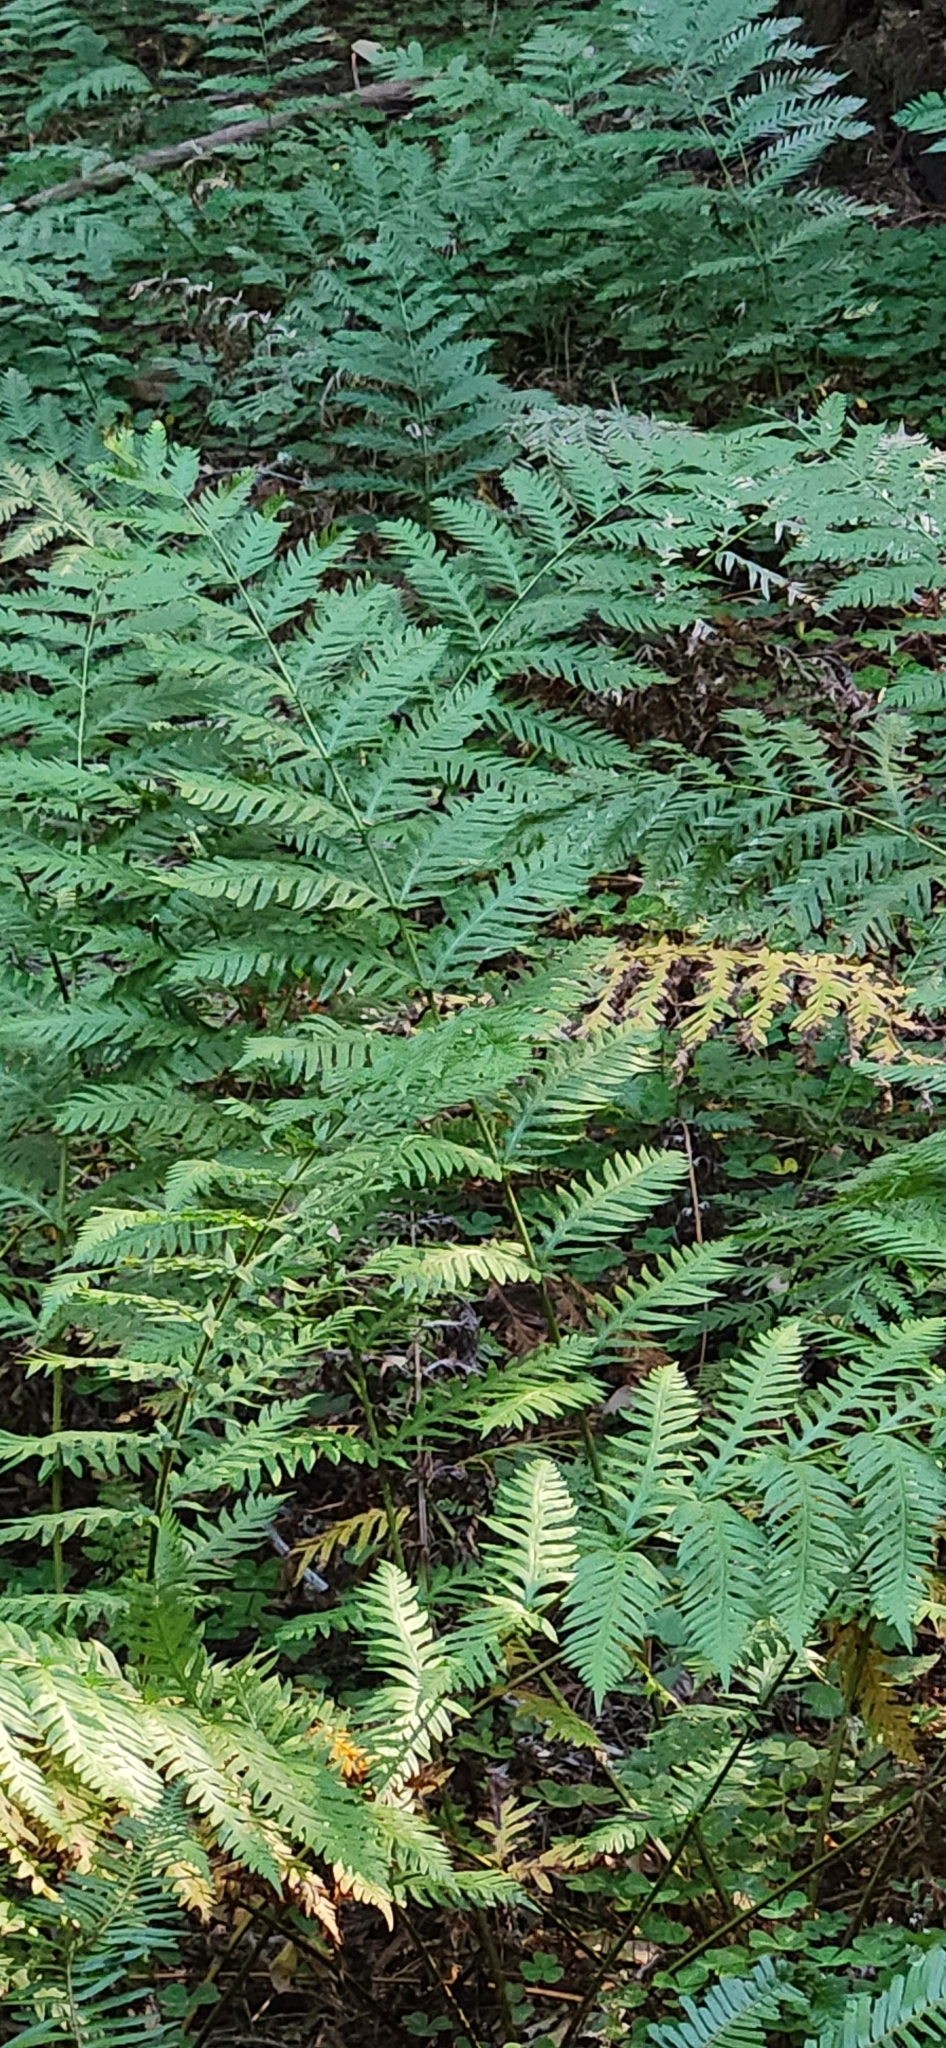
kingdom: Plantae
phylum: Tracheophyta
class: Polypodiopsida
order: Polypodiales
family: Blechnaceae
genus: Woodwardia
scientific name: Woodwardia fimbriata
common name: Giant chain fern
